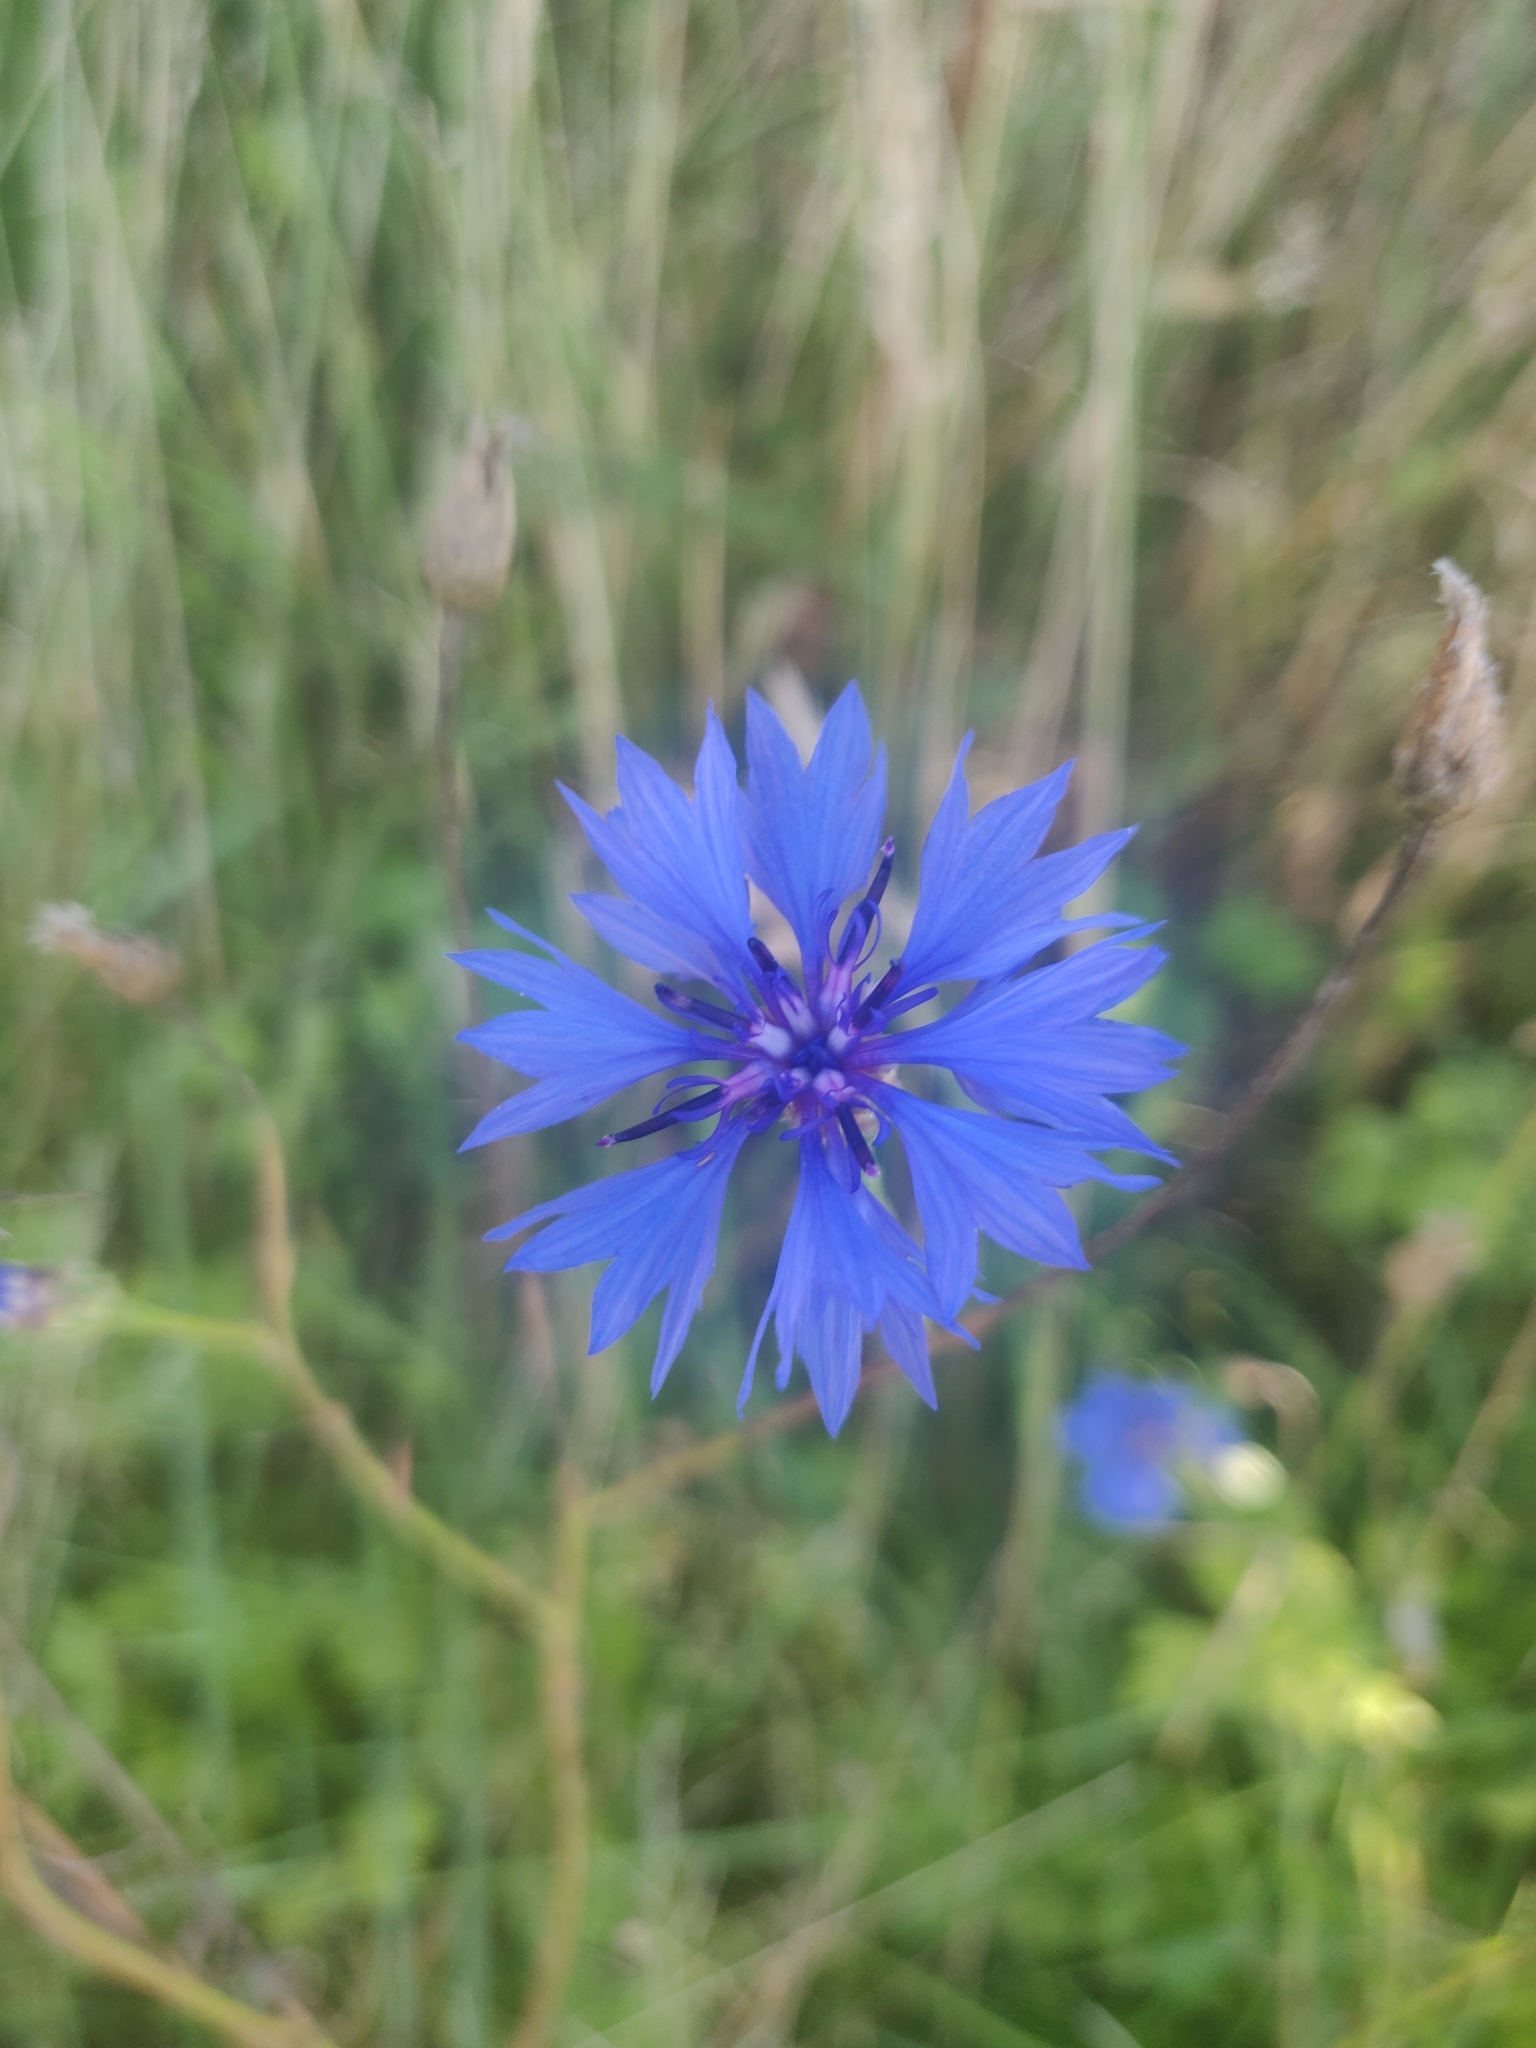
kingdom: Plantae
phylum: Tracheophyta
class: Magnoliopsida
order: Asterales
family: Asteraceae
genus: Centaurea
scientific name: Centaurea cyanus
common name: Cornflower
